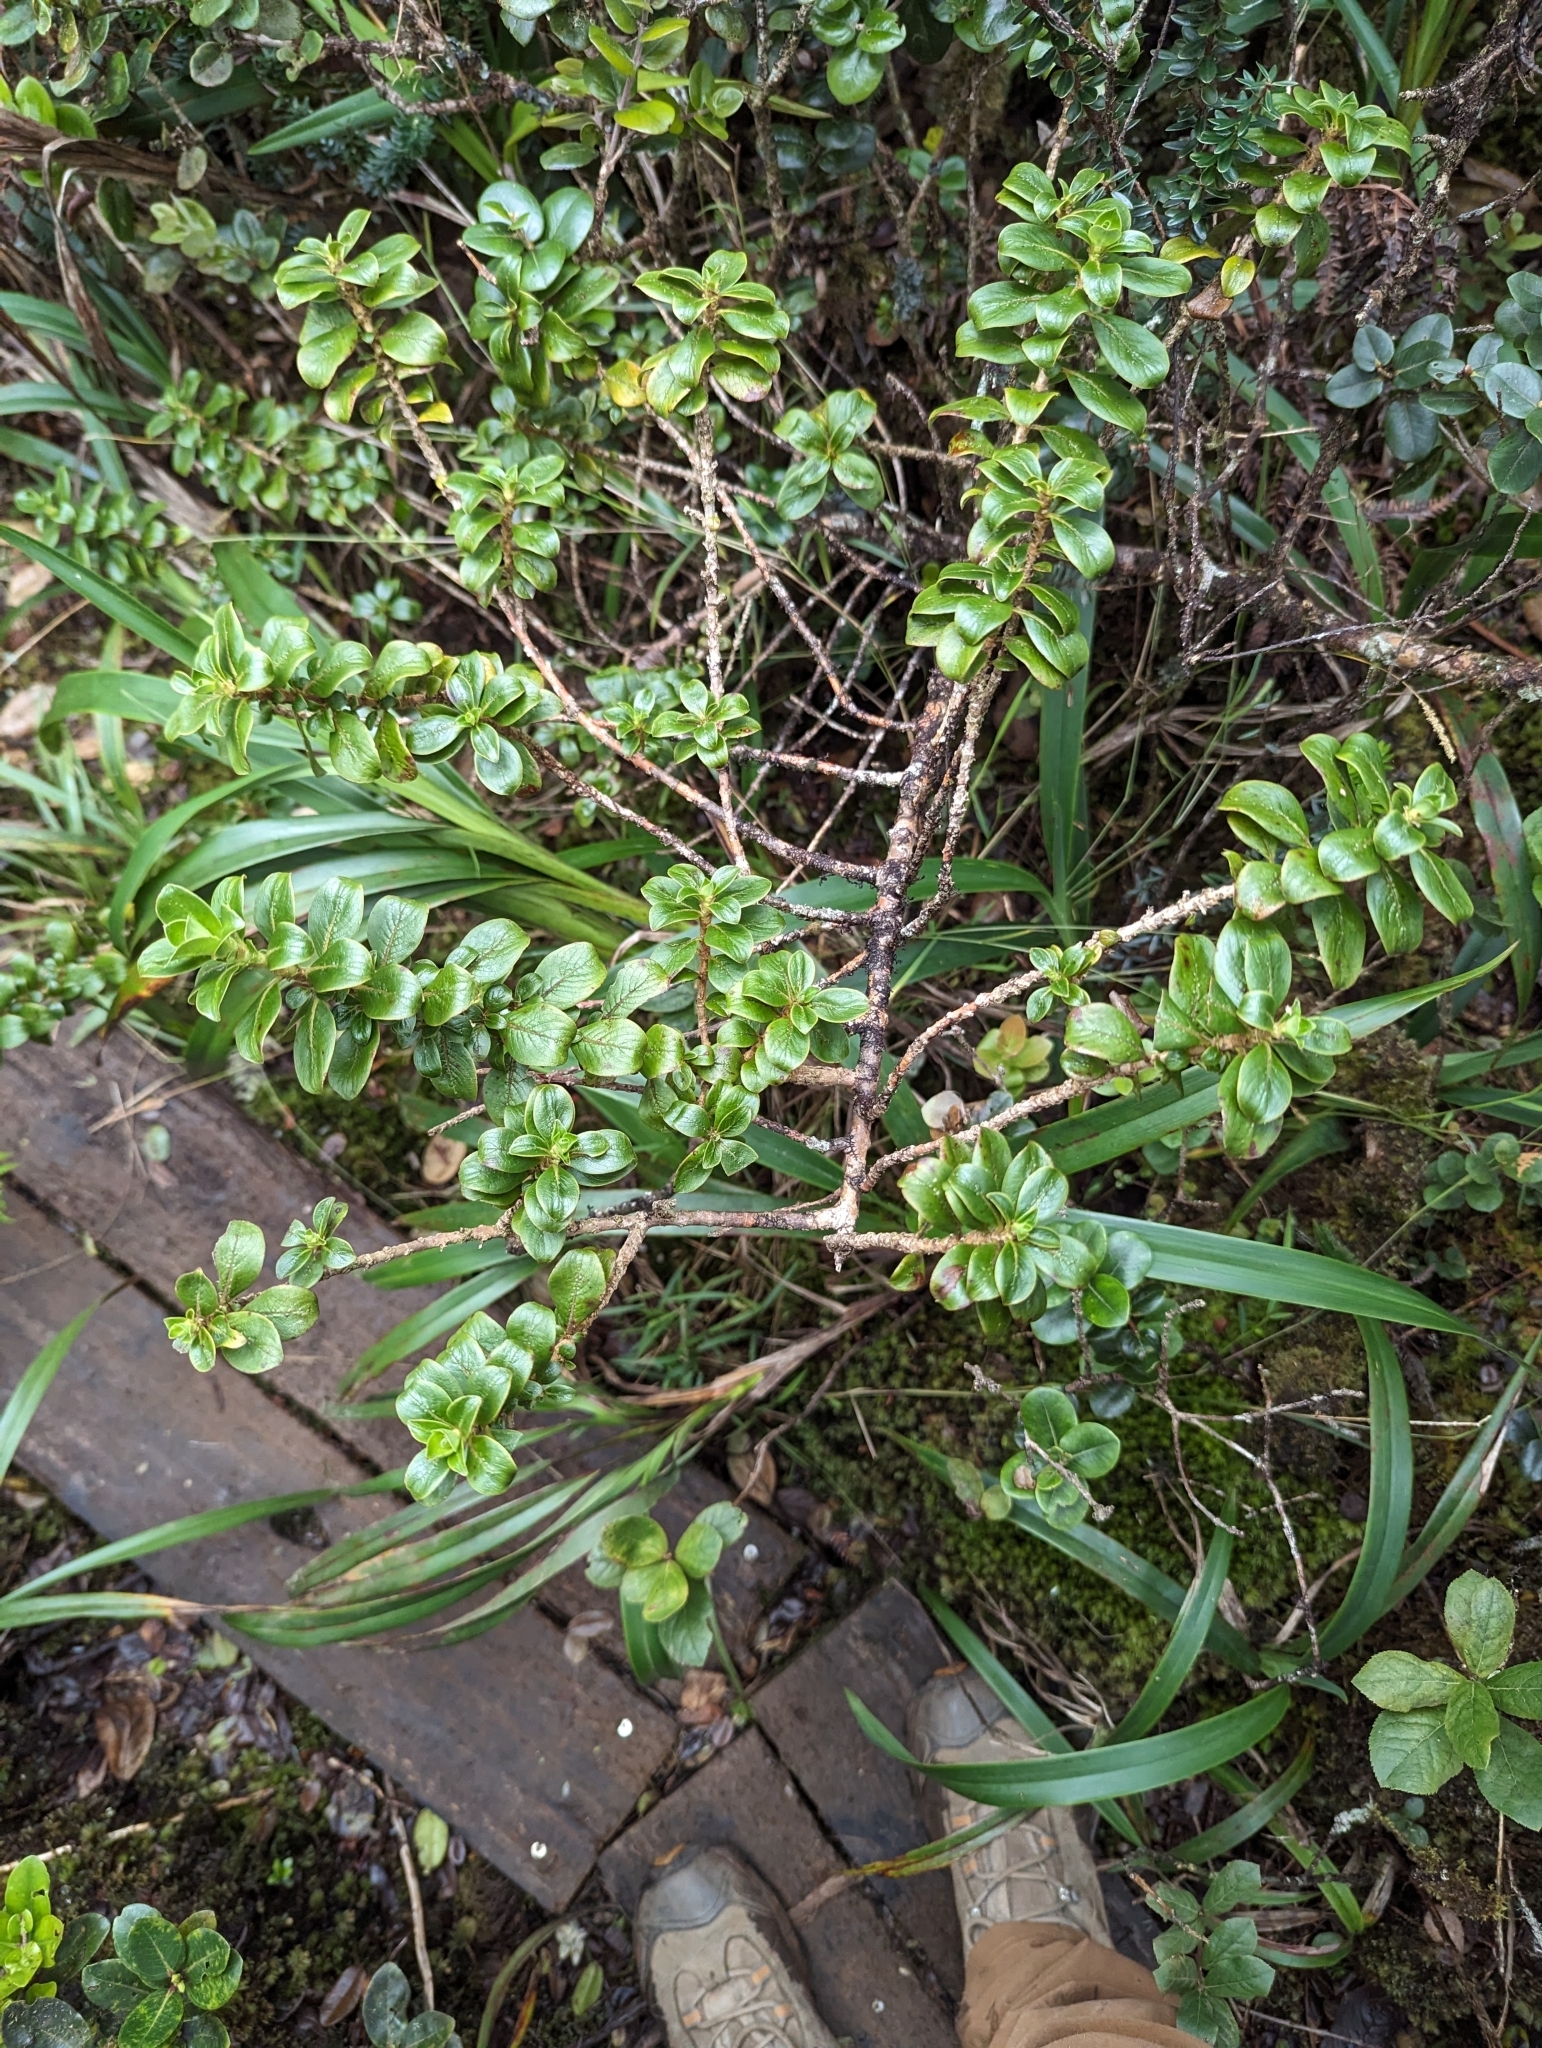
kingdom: Plantae
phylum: Tracheophyta
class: Magnoliopsida
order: Gentianales
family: Rubiaceae
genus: Coprosma
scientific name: Coprosma ochracea
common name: Maui mirrorplant
